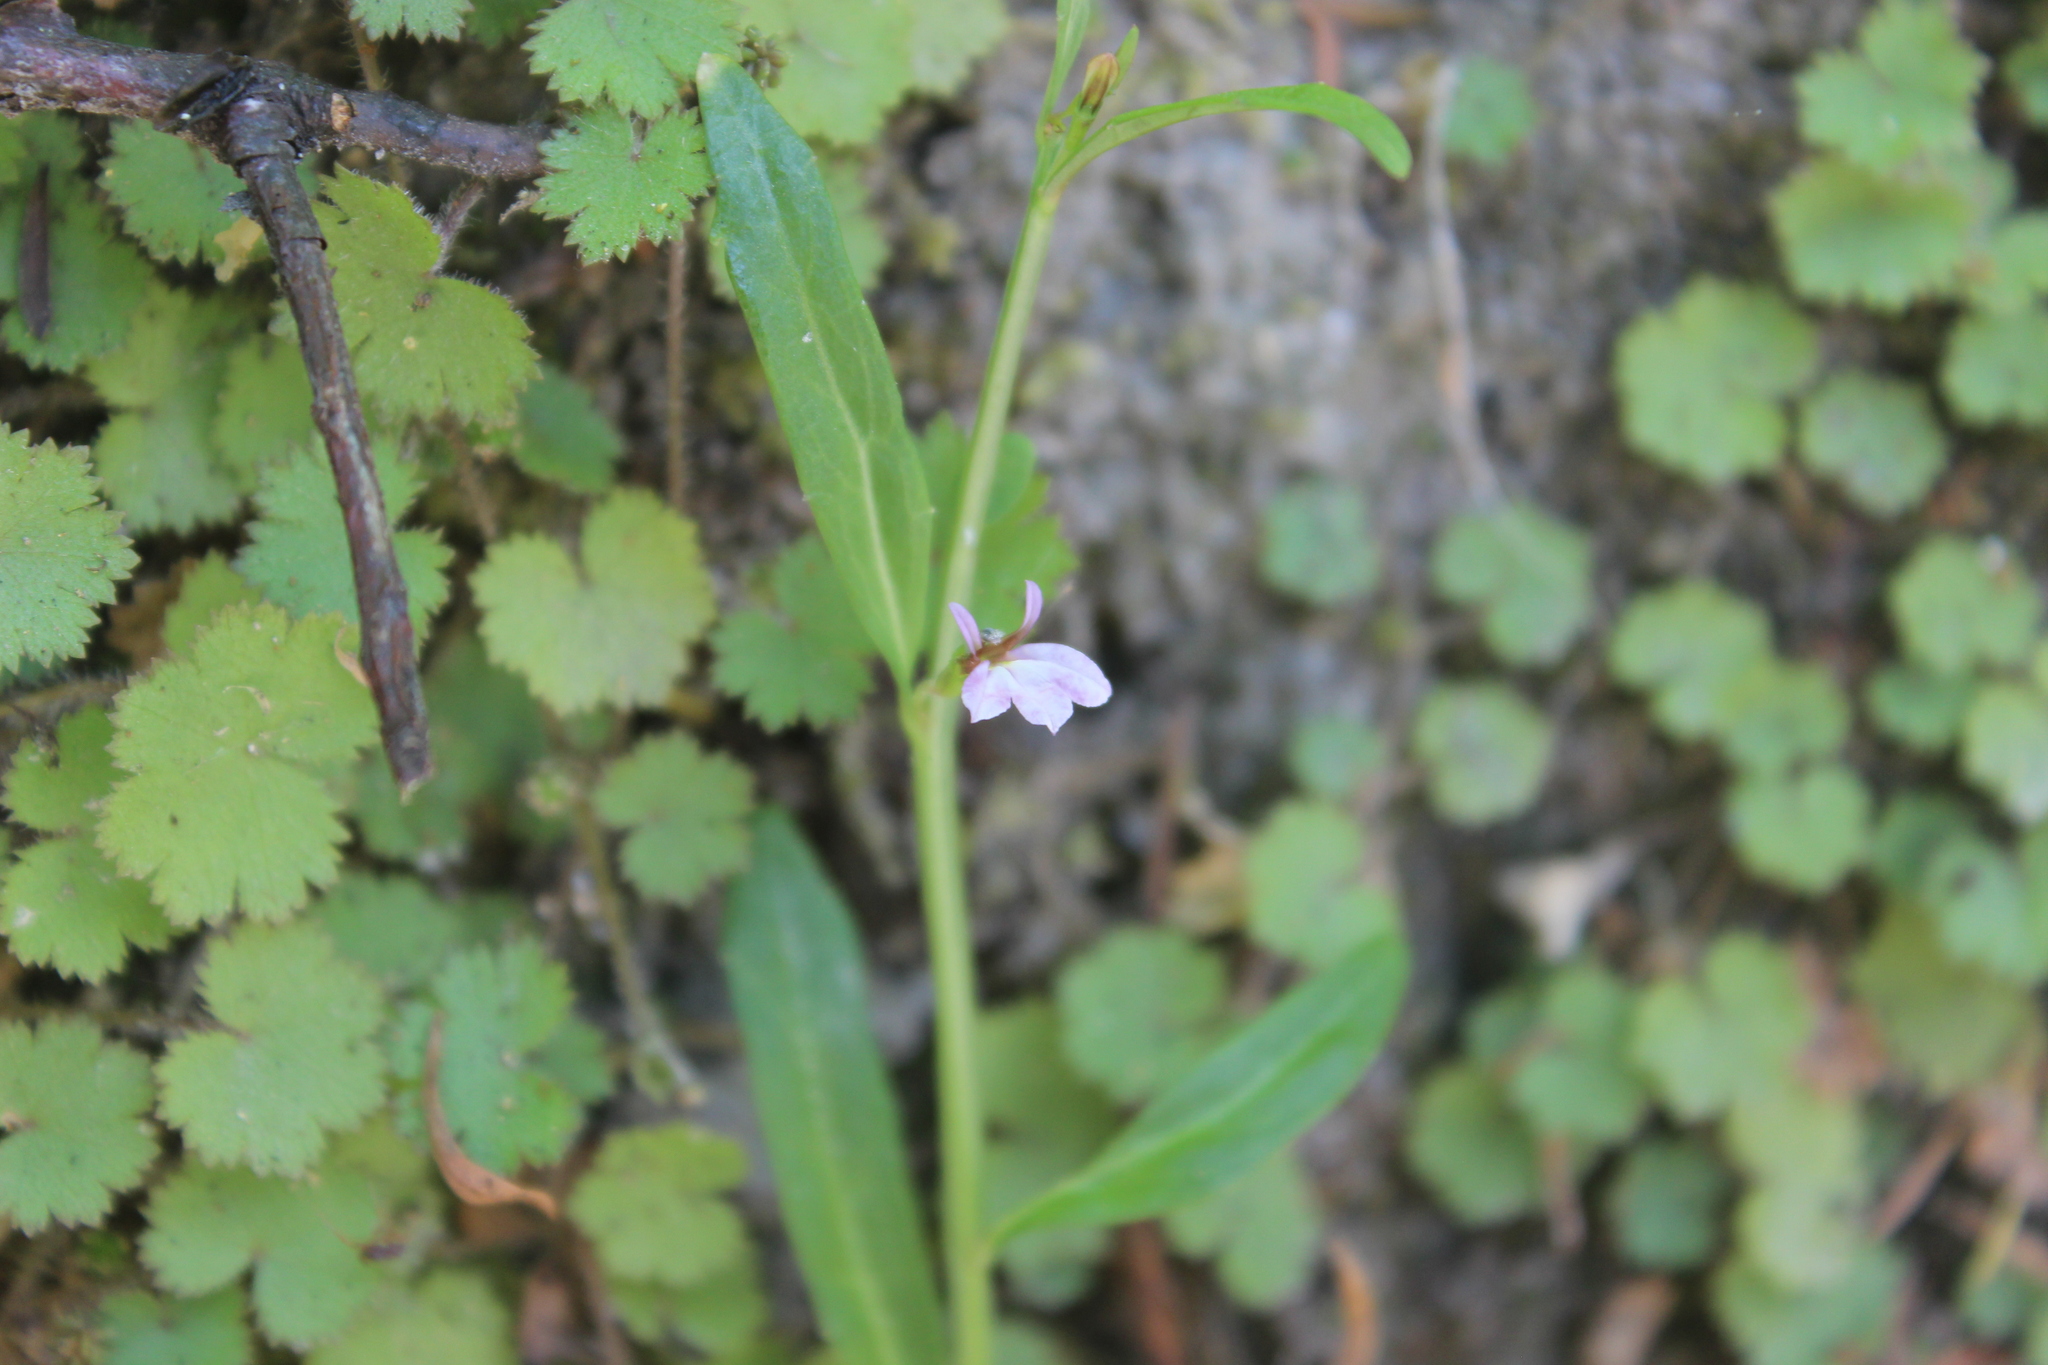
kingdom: Plantae
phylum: Tracheophyta
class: Magnoliopsida
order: Asterales
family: Campanulaceae
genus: Lobelia
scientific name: Lobelia anceps
